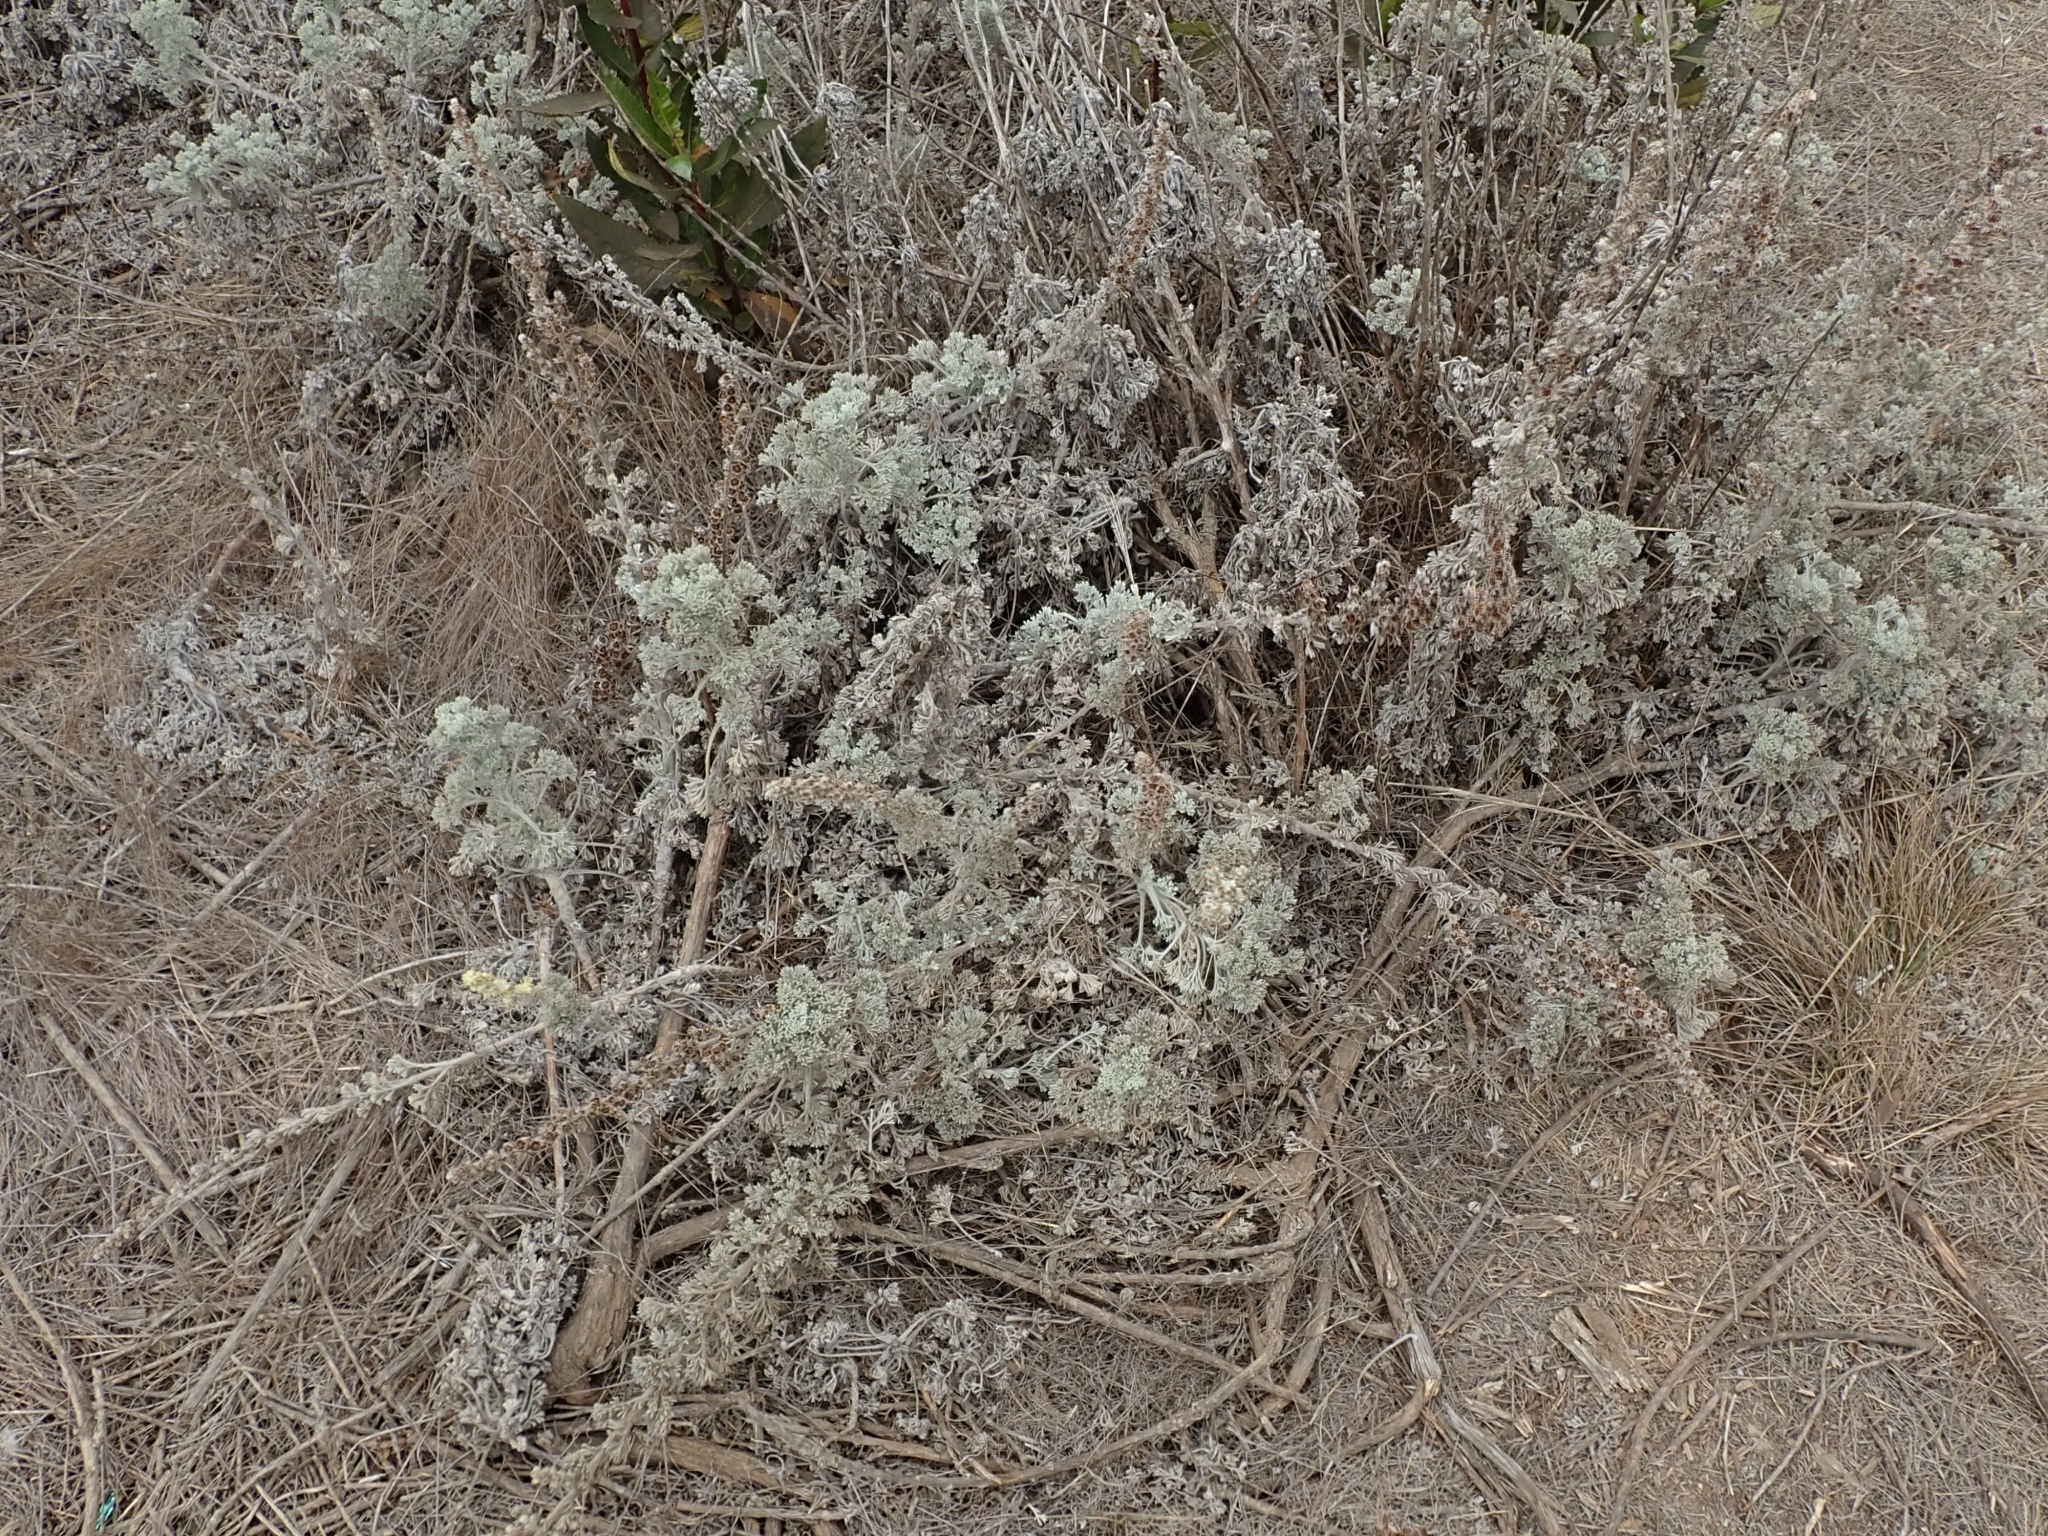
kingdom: Plantae
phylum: Tracheophyta
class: Magnoliopsida
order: Asterales
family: Asteraceae
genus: Artemisia
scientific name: Artemisia pycnocephala
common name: Coastal sagewort
